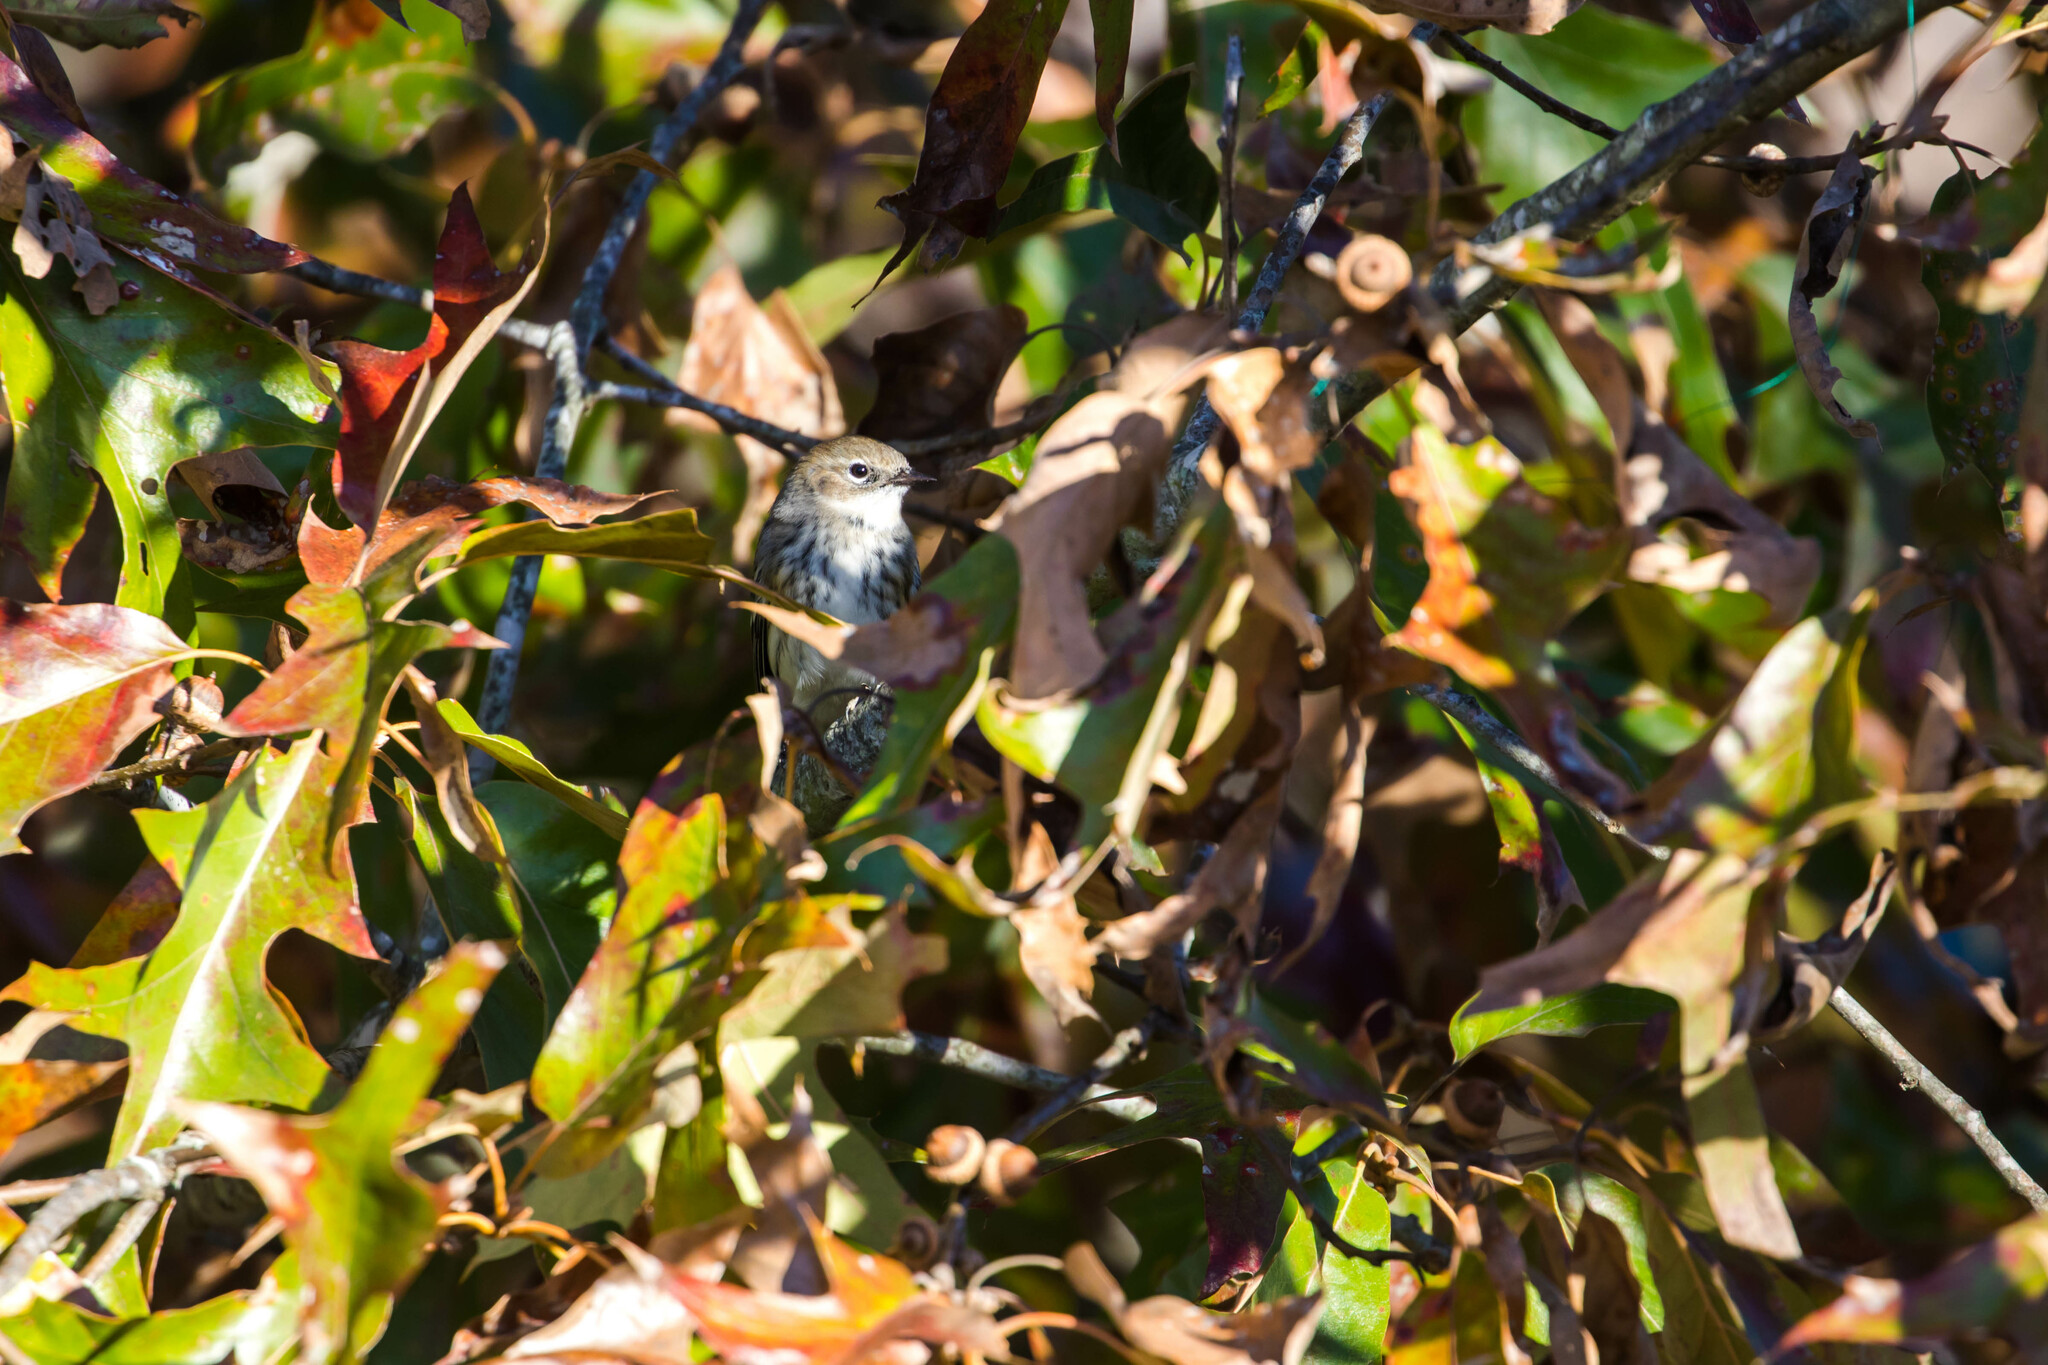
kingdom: Animalia
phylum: Chordata
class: Aves
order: Passeriformes
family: Parulidae
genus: Setophaga
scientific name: Setophaga coronata
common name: Myrtle warbler
